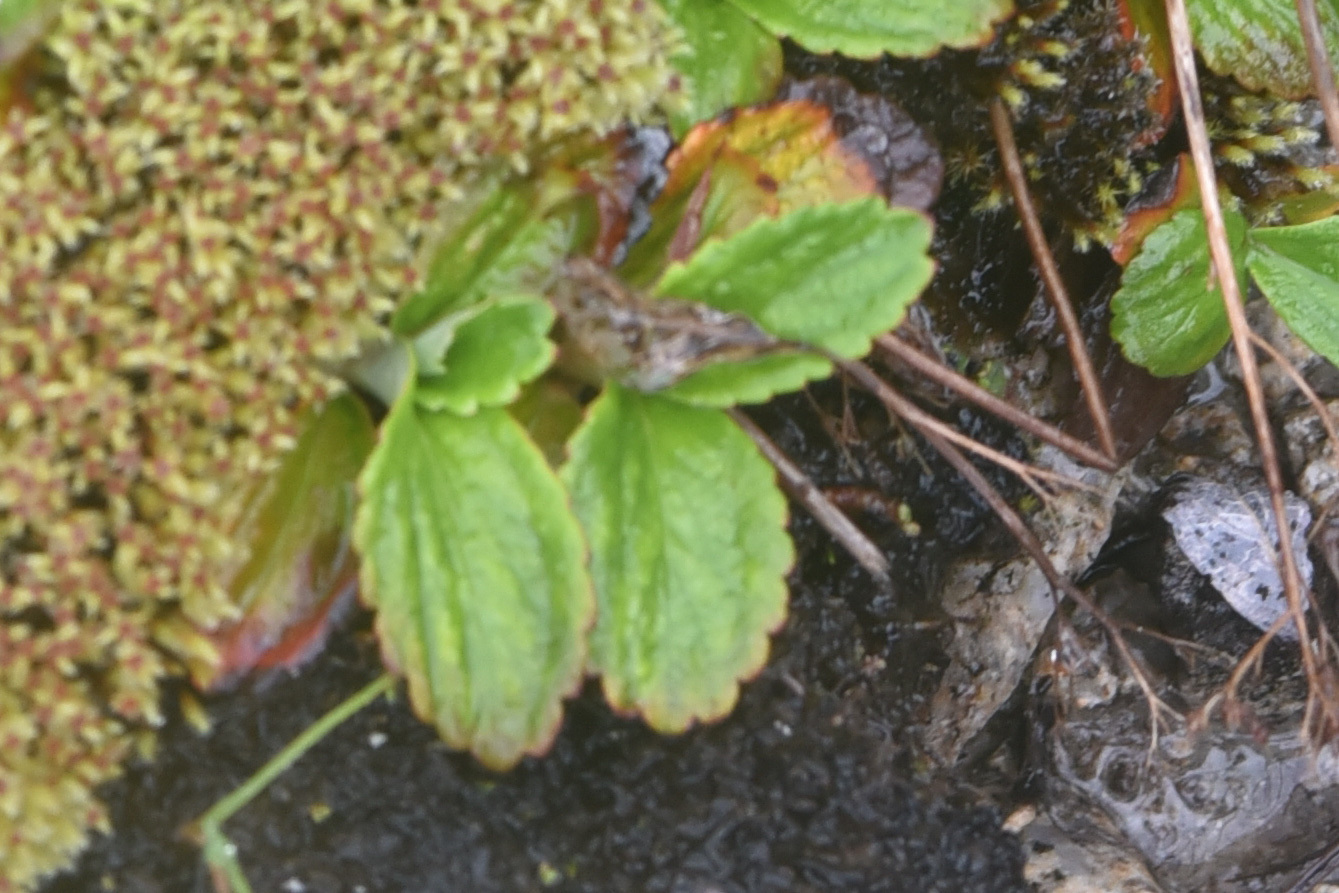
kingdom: Plantae
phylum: Tracheophyta
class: Magnoliopsida
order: Saxifragales
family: Saxifragaceae
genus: Leptarrhena
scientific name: Leptarrhena pyrolifolia
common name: Leatherleaf-saxifrage
